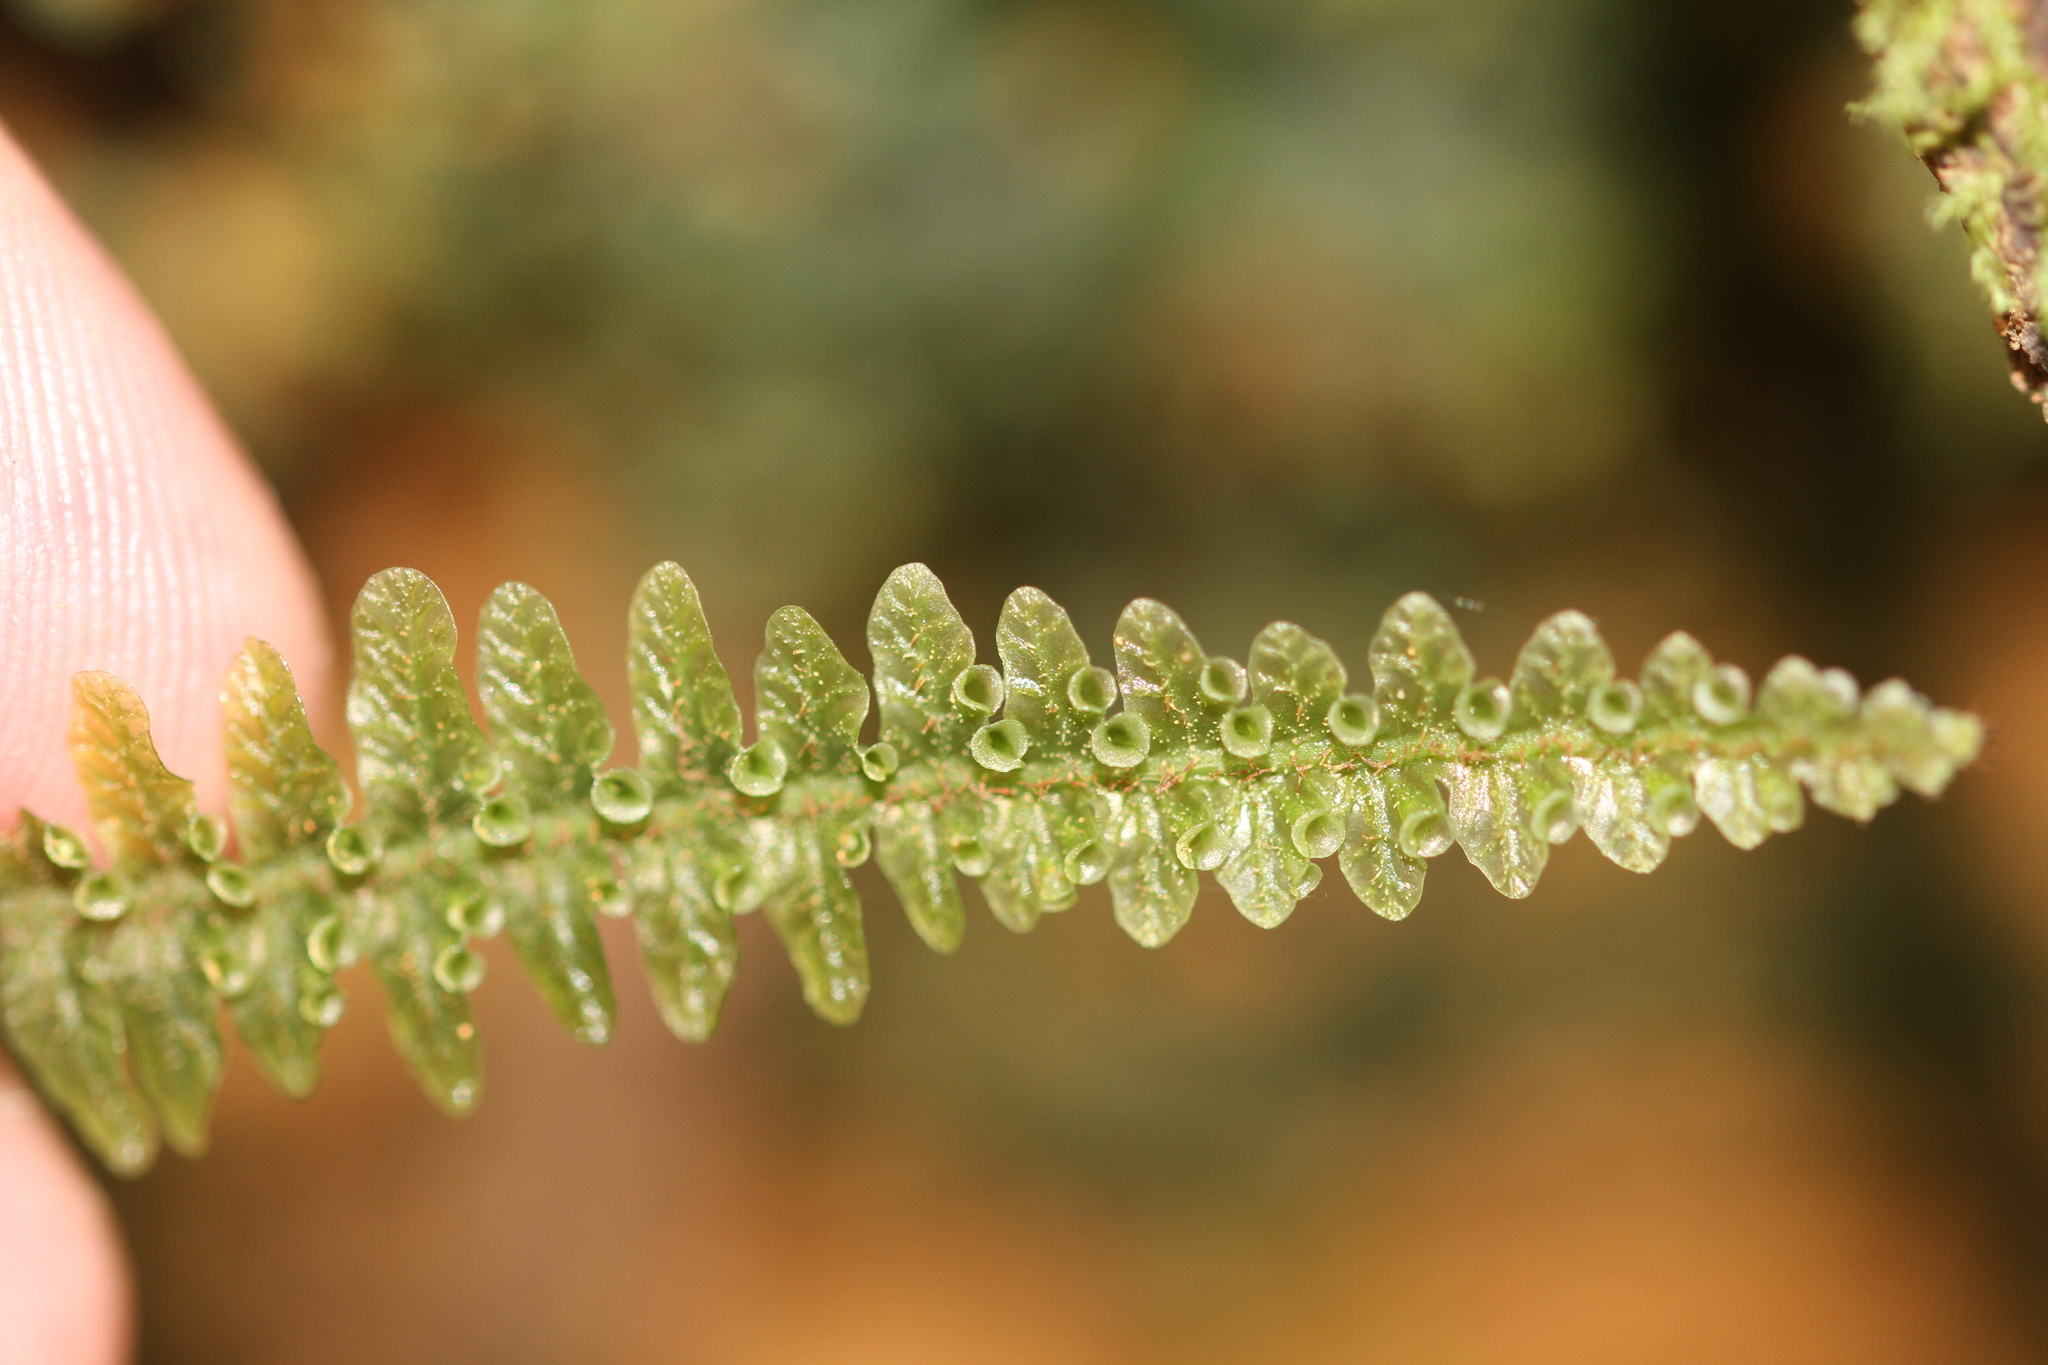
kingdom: Plantae
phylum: Tracheophyta
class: Polypodiopsida
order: Hymenophyllales
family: Hymenophyllaceae
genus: Trichomanes
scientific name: Trichomanes mougeotii
